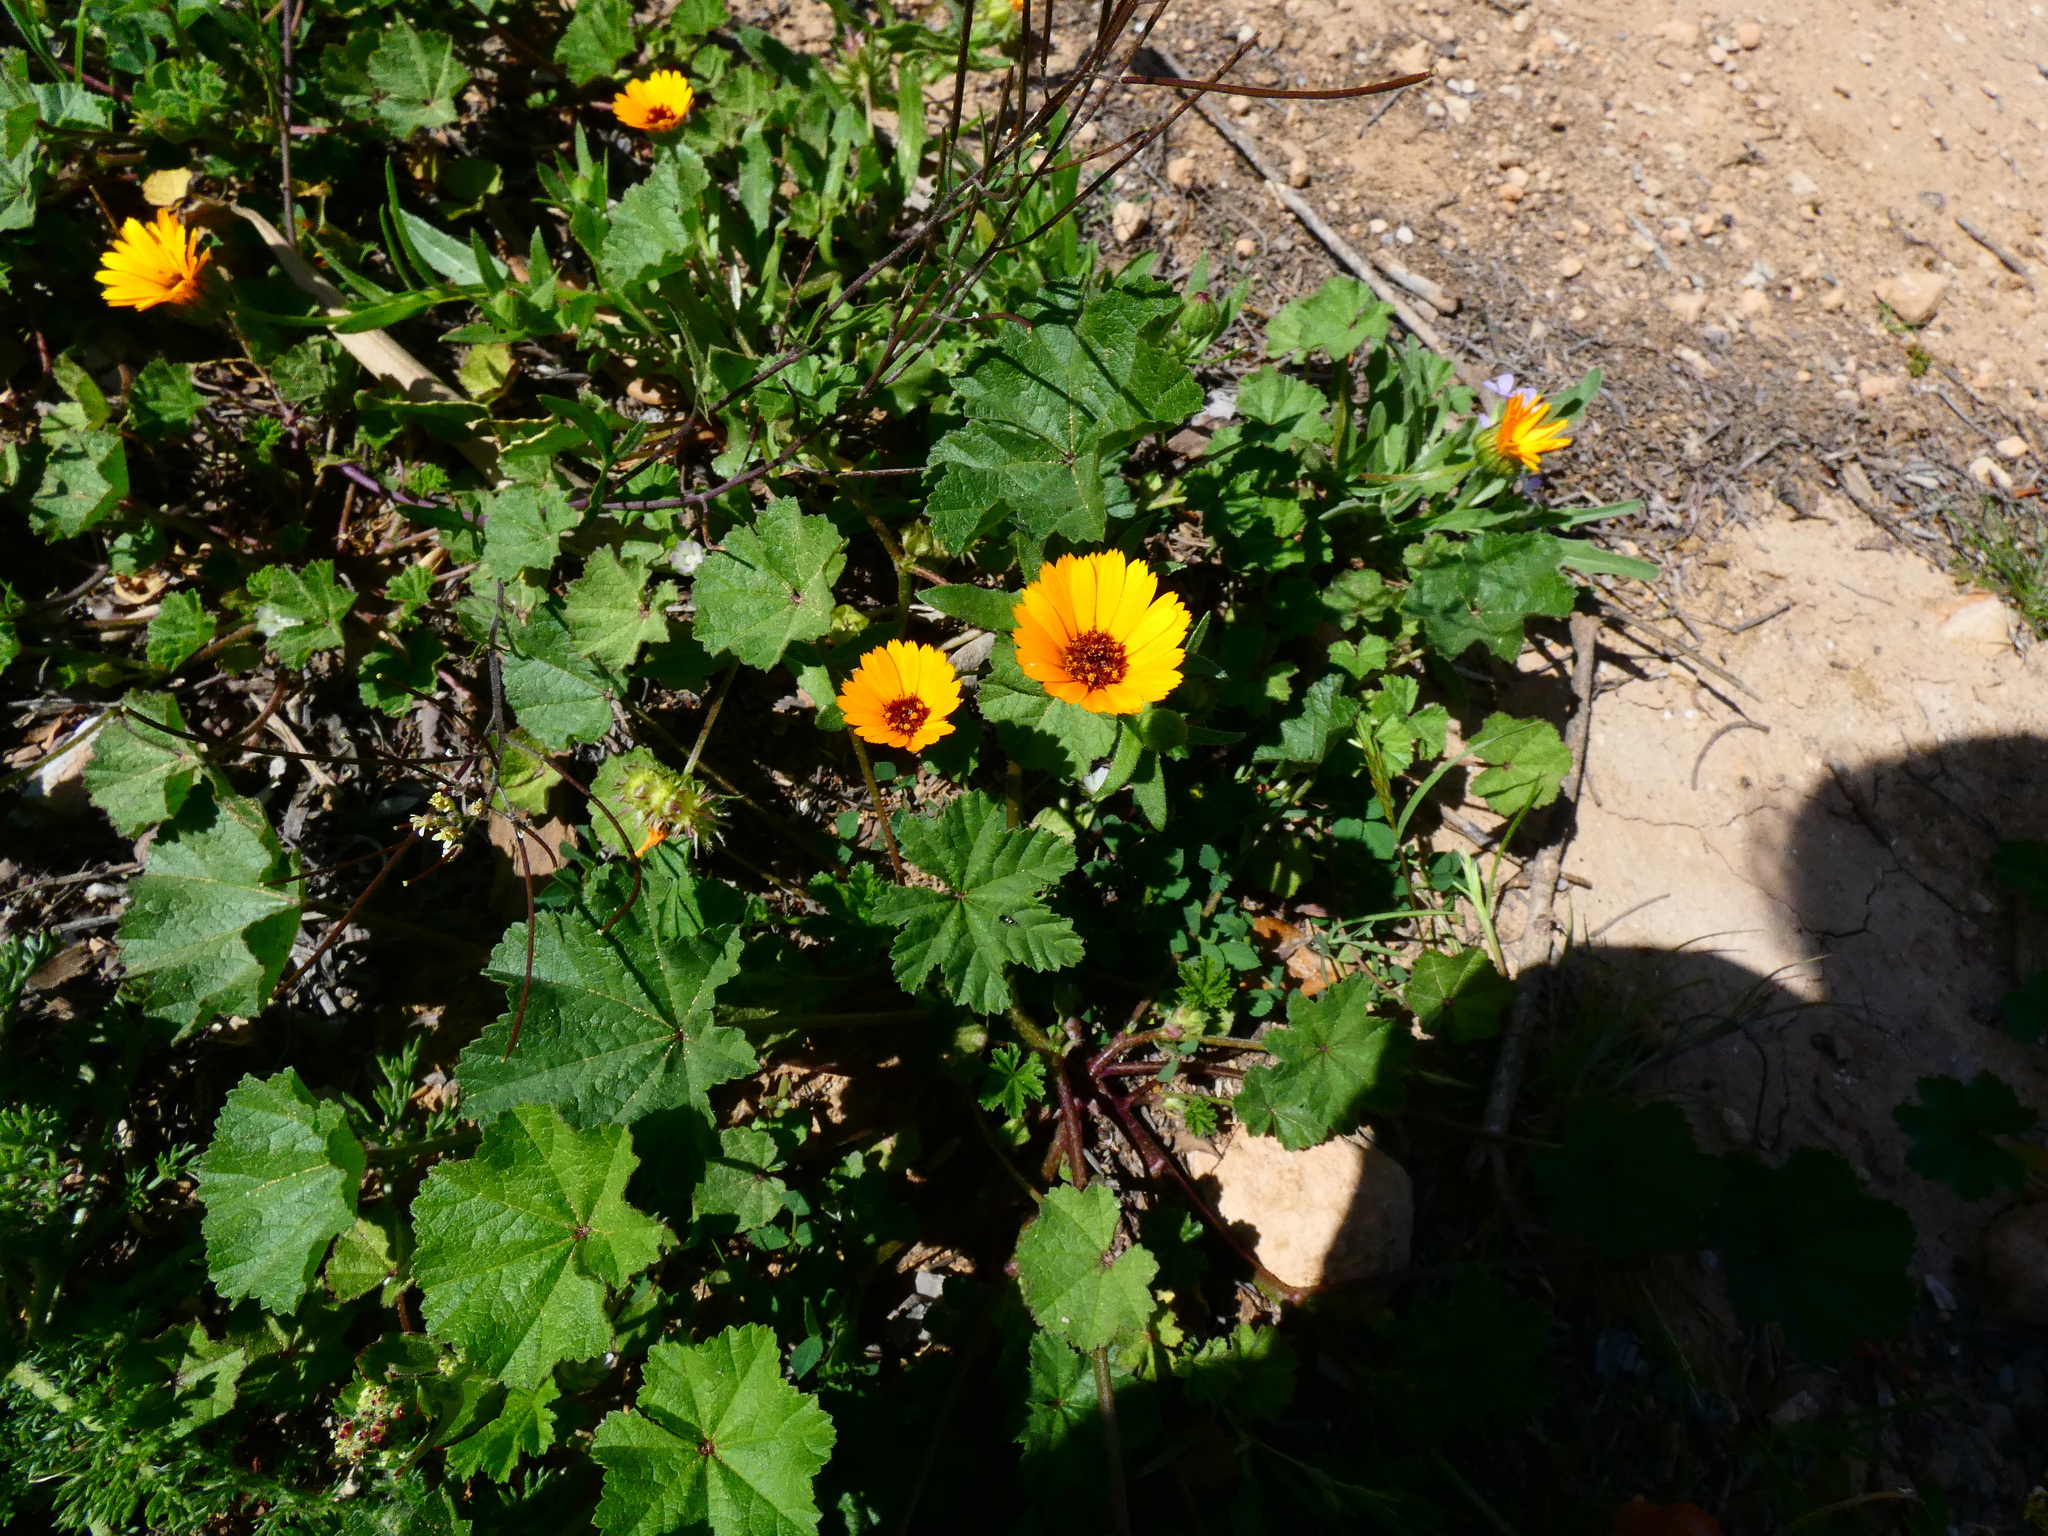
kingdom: Plantae
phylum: Tracheophyta
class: Magnoliopsida
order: Asterales
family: Asteraceae
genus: Calendula
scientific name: Calendula officinalis
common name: Pot marigold
